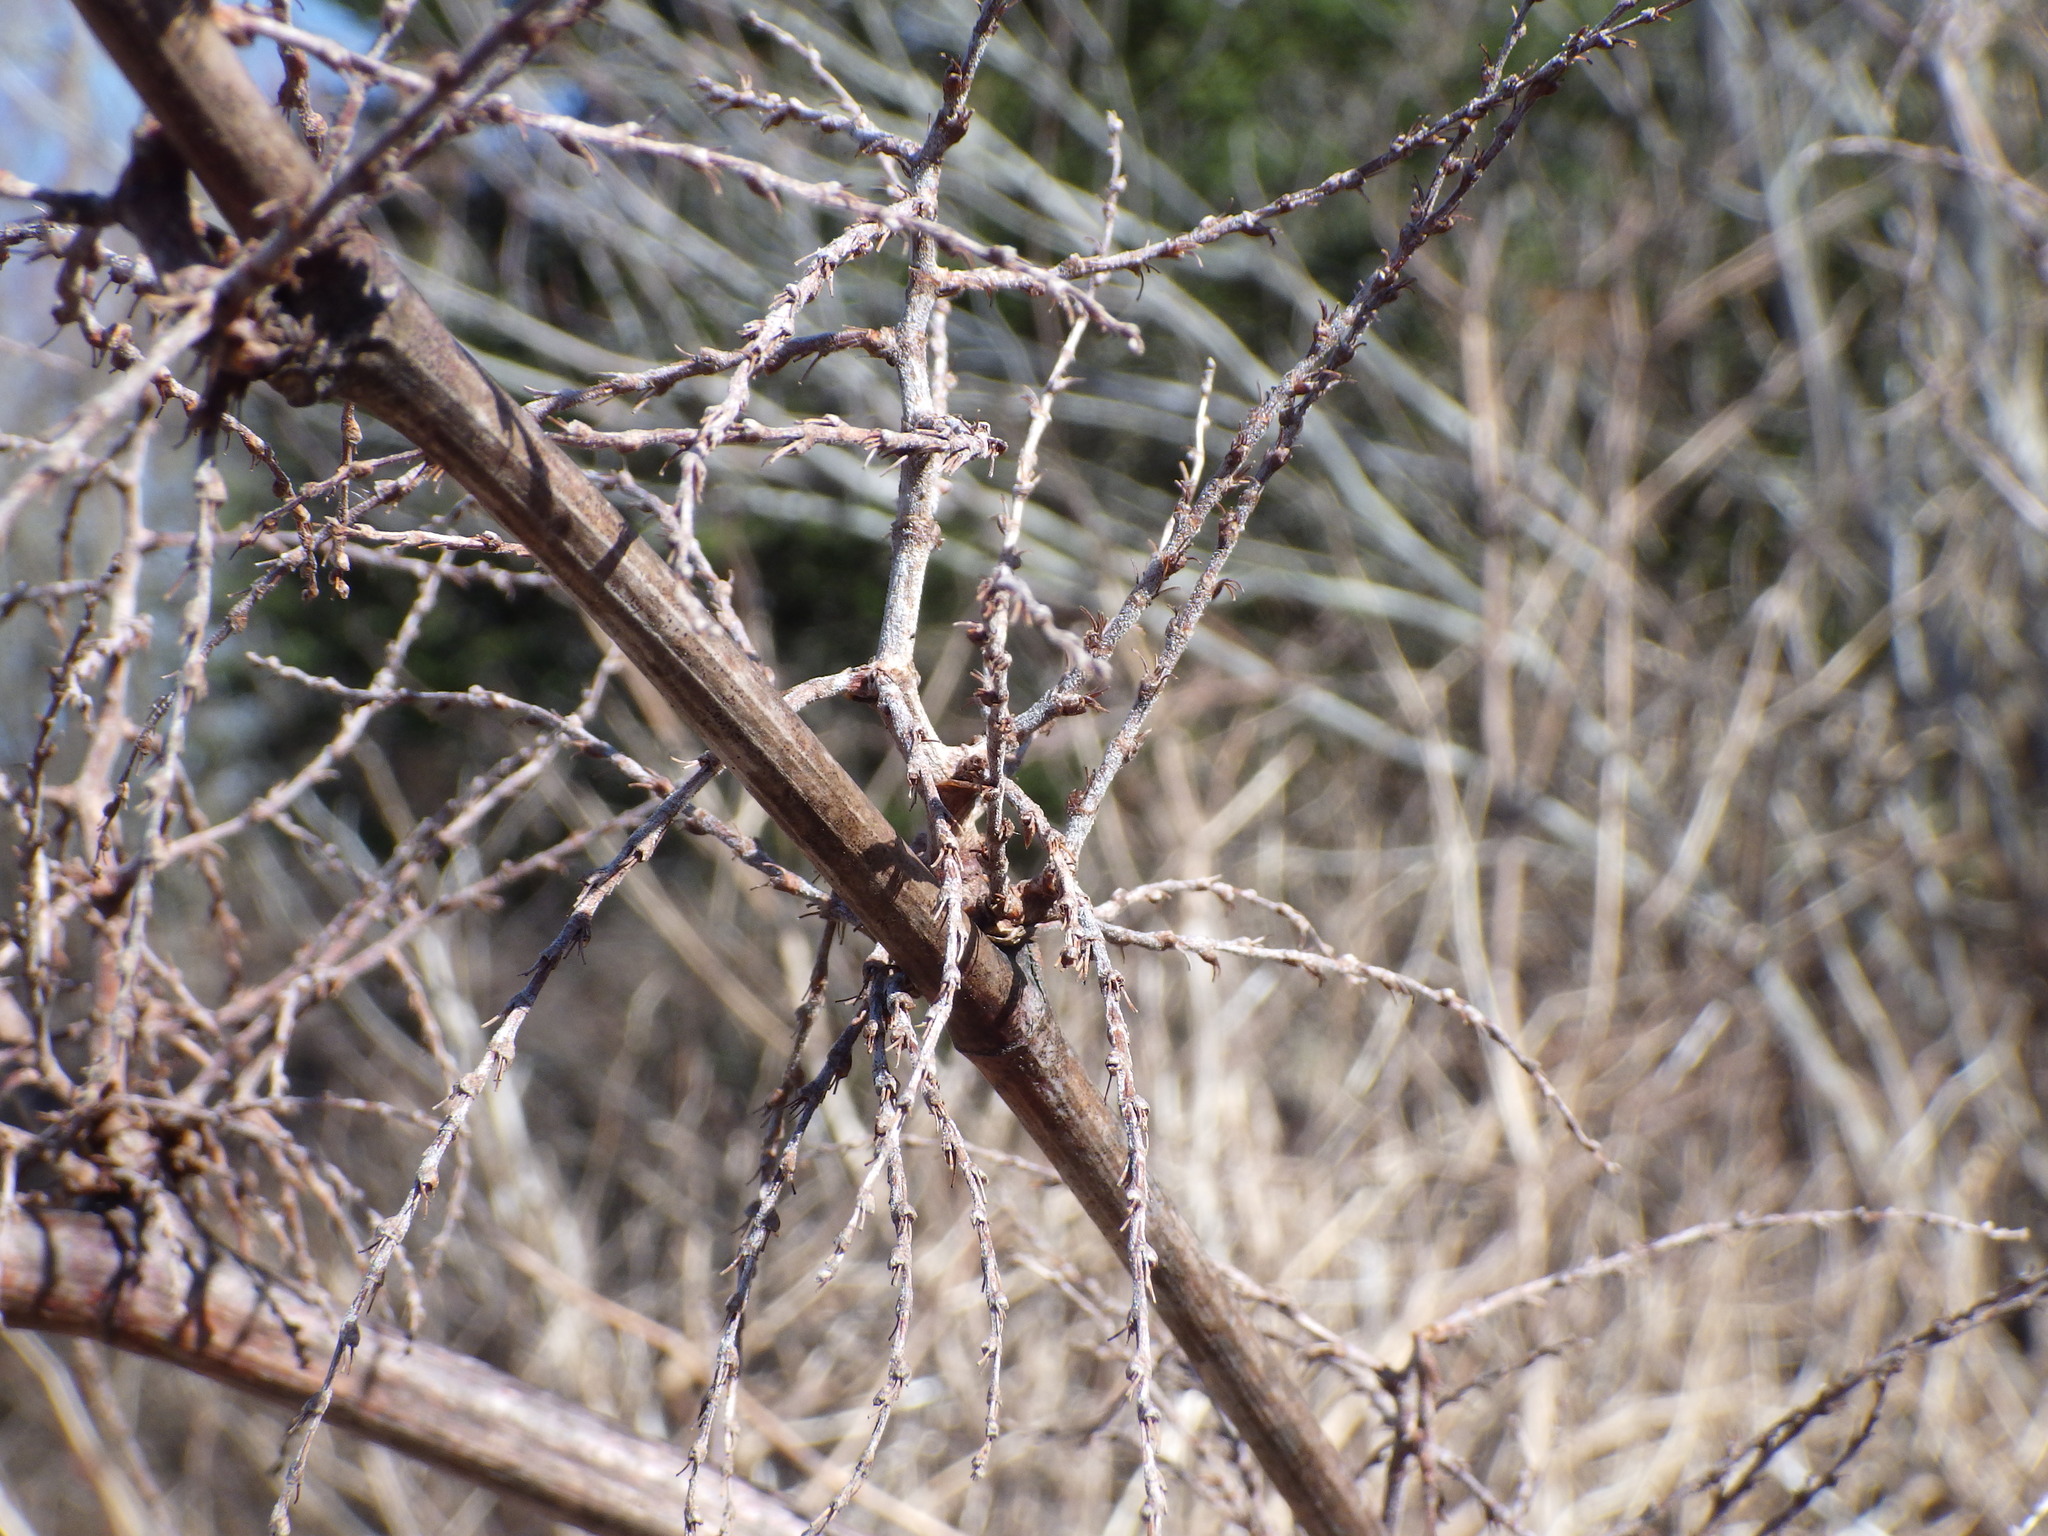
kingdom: Plantae
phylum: Tracheophyta
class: Magnoliopsida
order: Caryophyllales
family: Polygonaceae
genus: Reynoutria
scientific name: Reynoutria japonica
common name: Japanese knotweed
